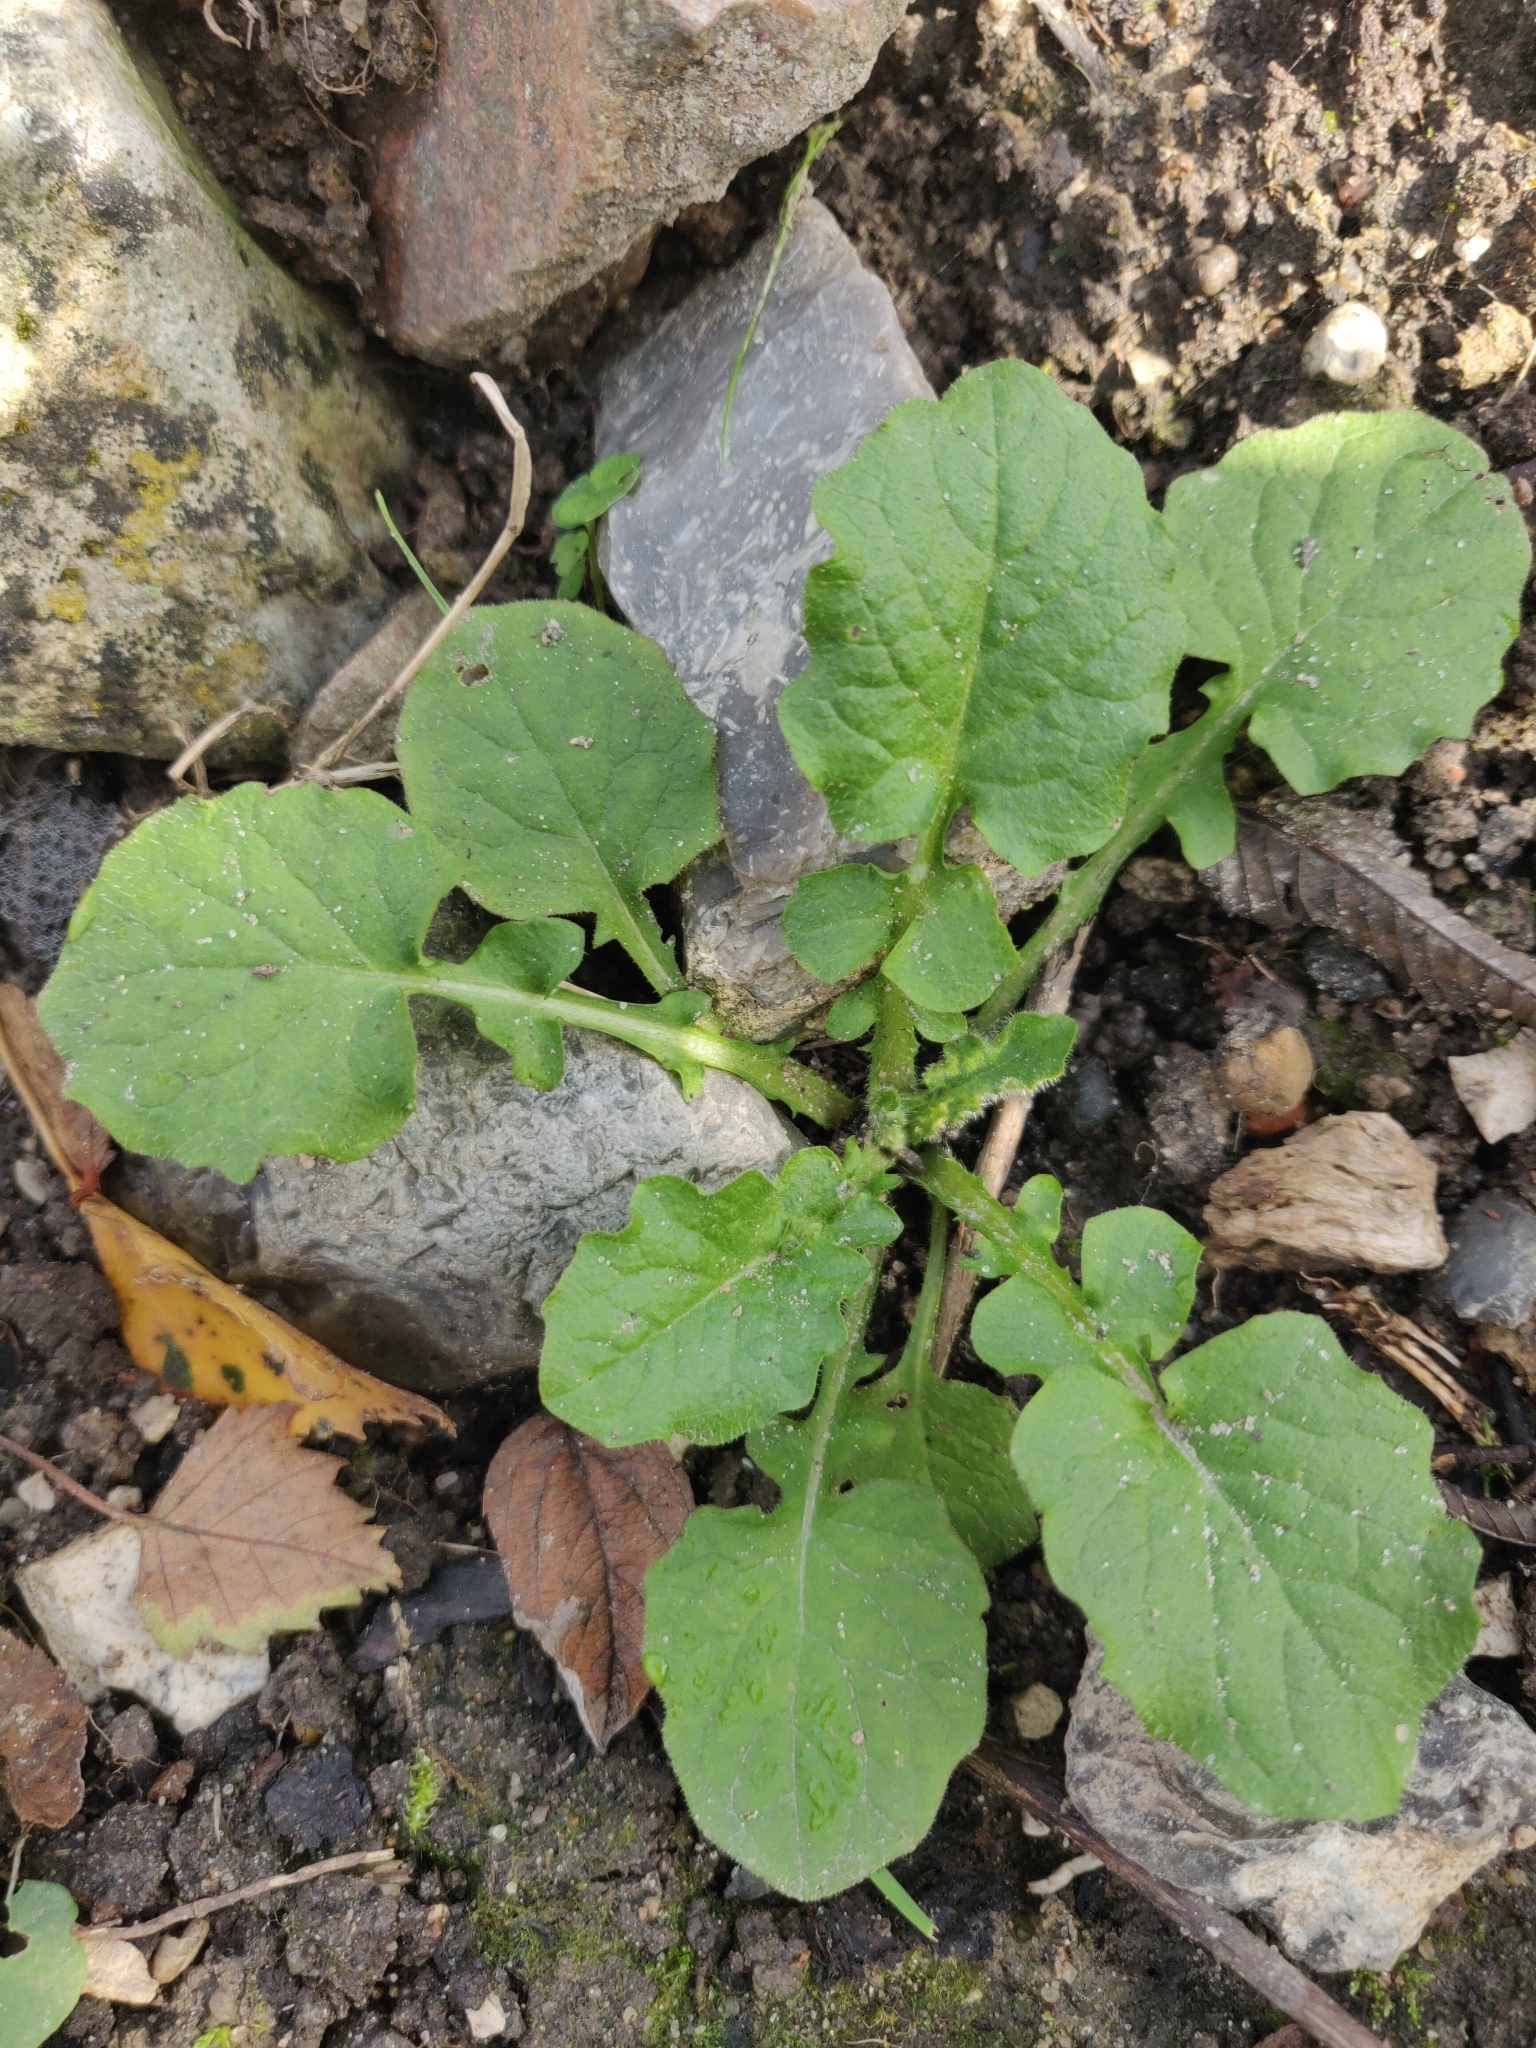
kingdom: Plantae
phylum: Tracheophyta
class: Magnoliopsida
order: Asterales
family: Asteraceae
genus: Lapsana
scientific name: Lapsana communis
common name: Nipplewort
